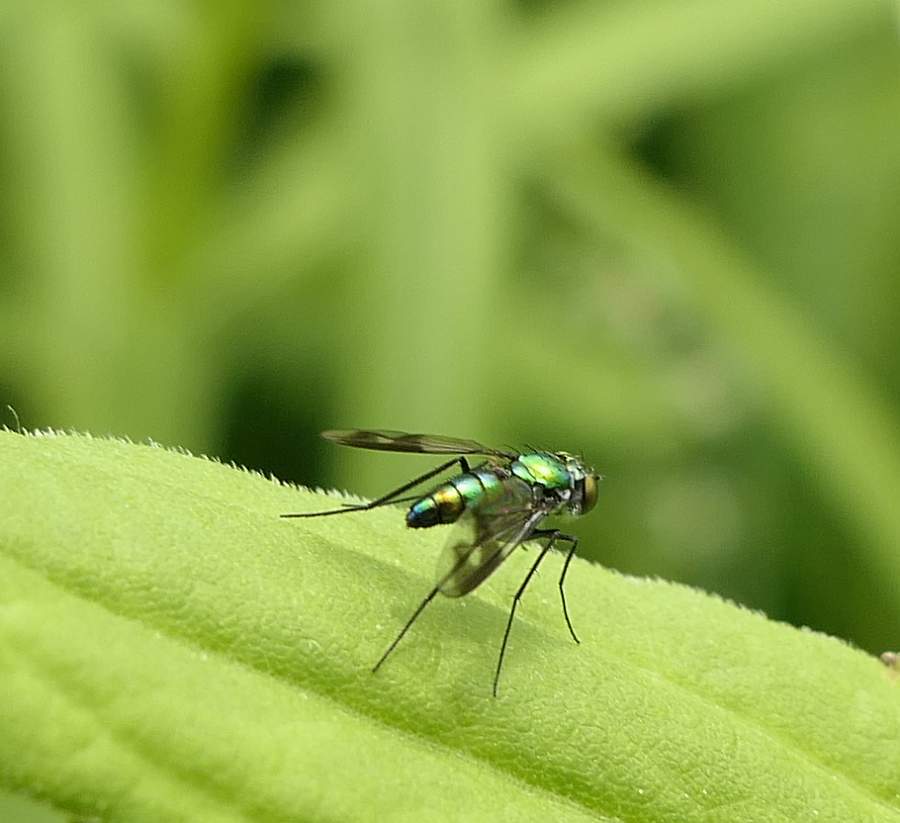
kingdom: Animalia
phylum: Arthropoda
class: Insecta
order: Diptera
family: Dolichopodidae
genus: Condylostylus
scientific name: Condylostylus patibulatus
